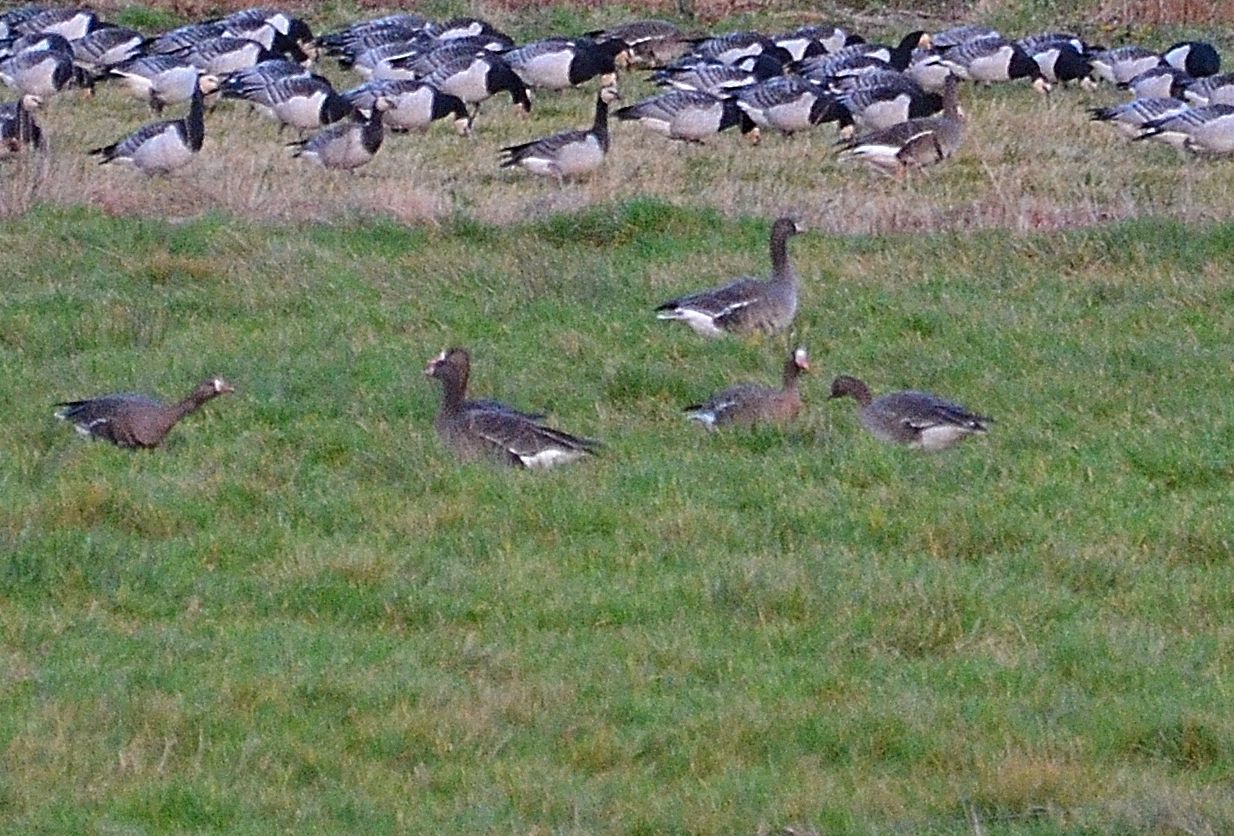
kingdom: Animalia
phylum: Chordata
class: Aves
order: Anseriformes
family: Anatidae
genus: Anser
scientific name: Anser albifrons
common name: Greater white-fronted goose
